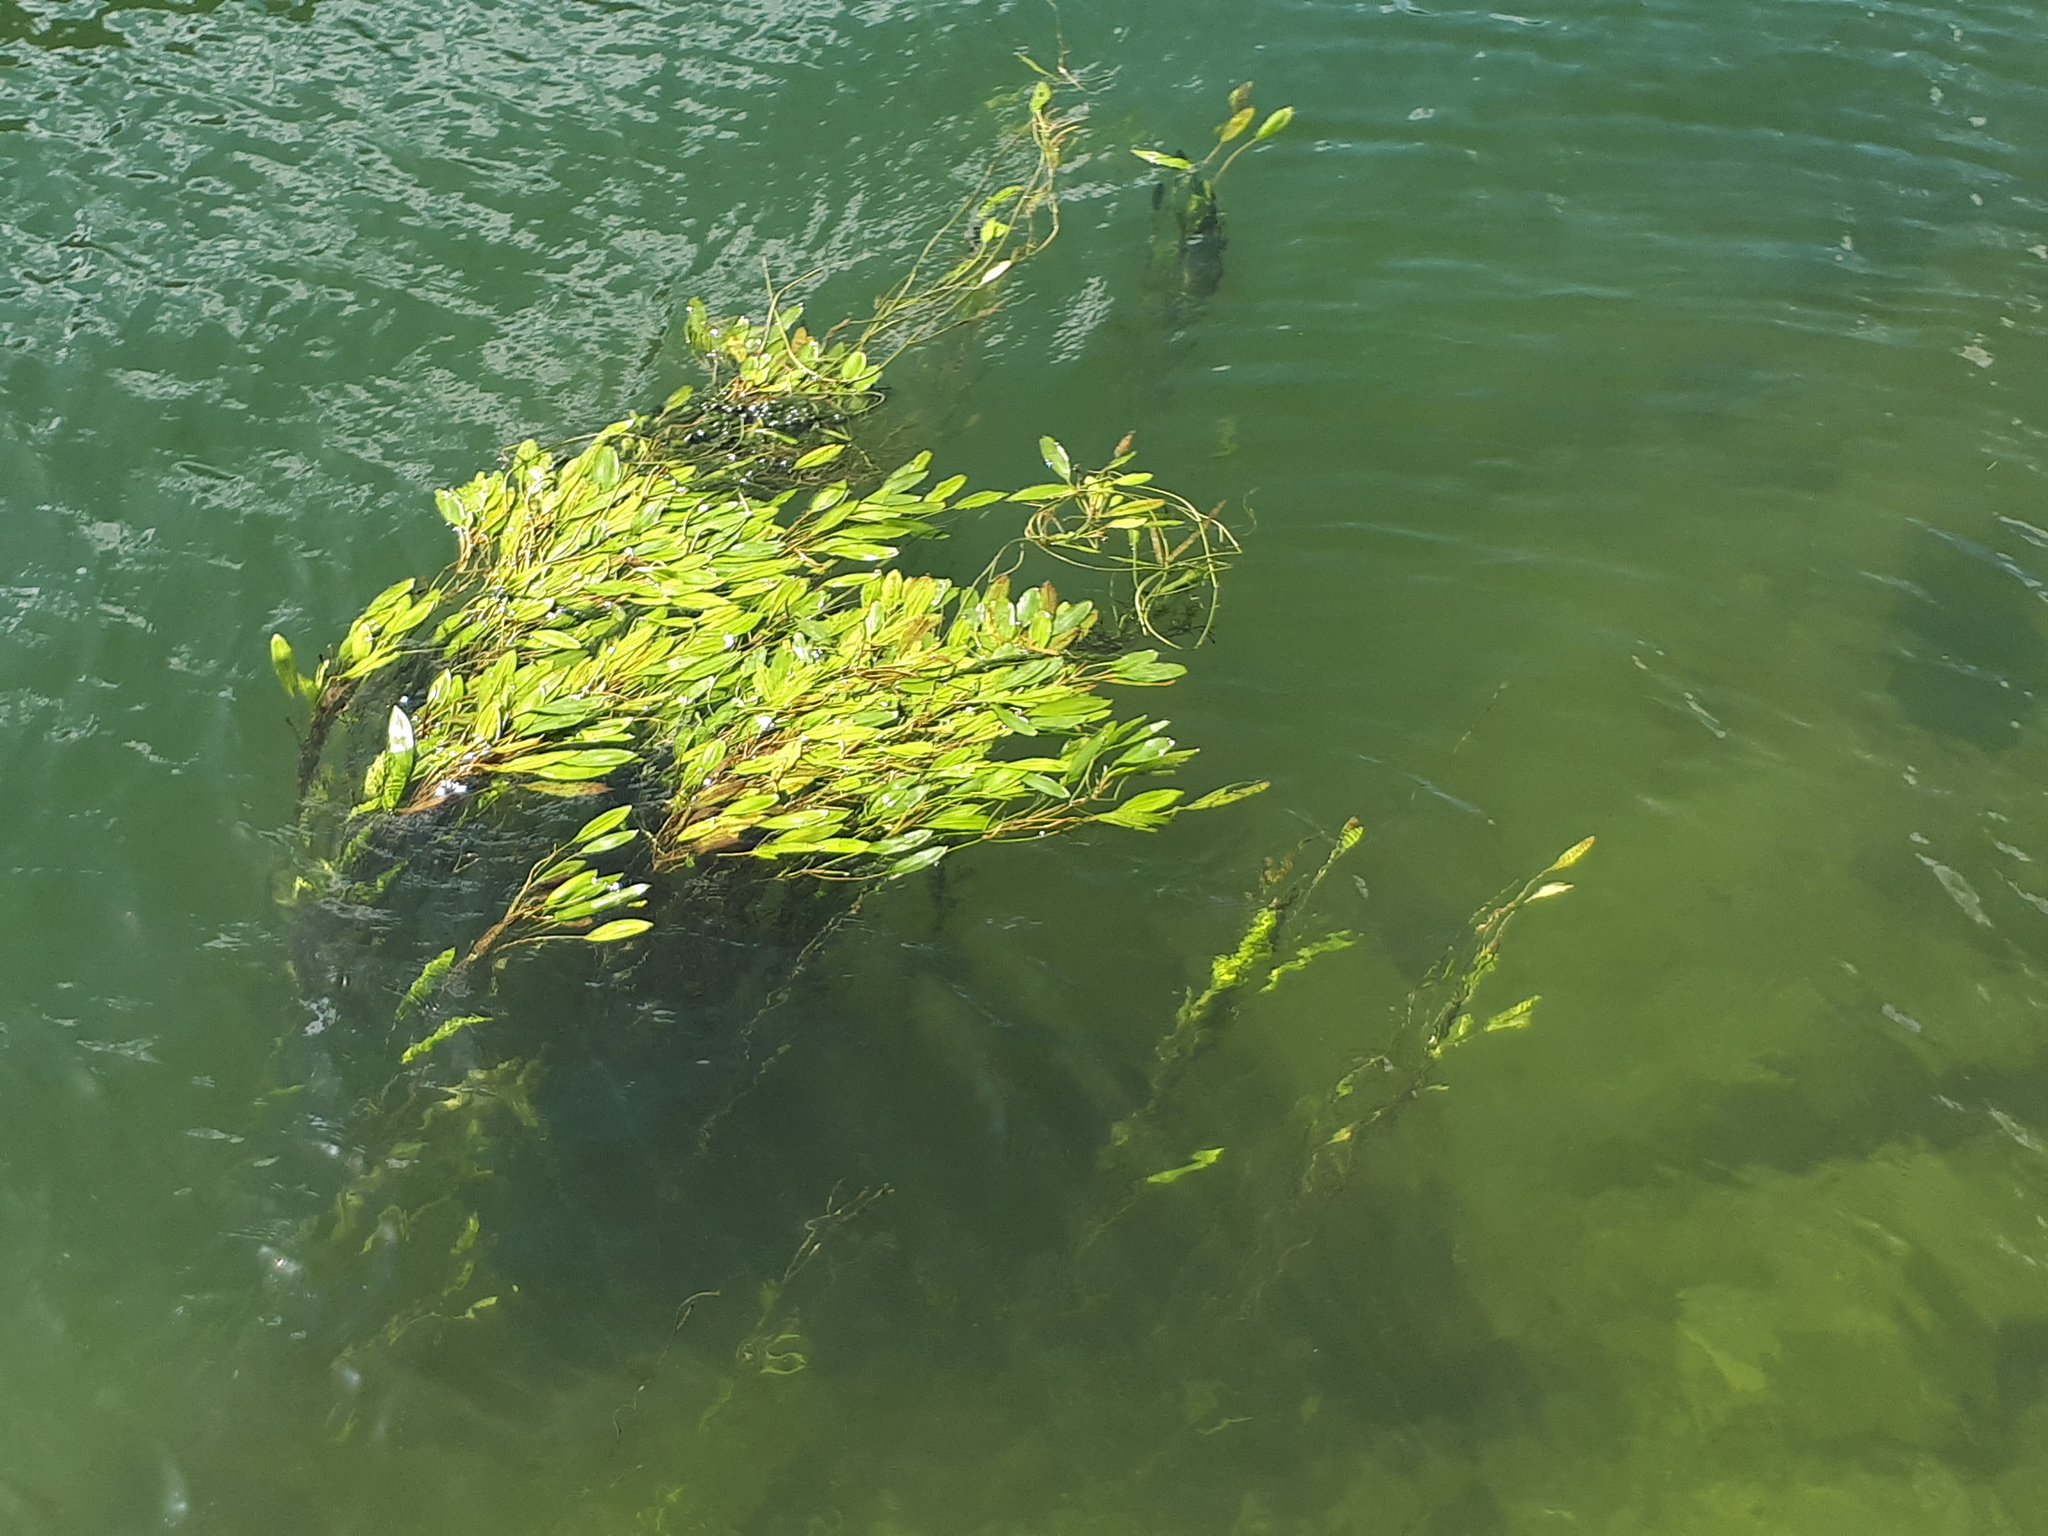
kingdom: Plantae
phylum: Tracheophyta
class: Liliopsida
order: Alismatales
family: Potamogetonaceae
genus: Potamogeton
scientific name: Potamogeton nodosus
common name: Loddon pondweed
